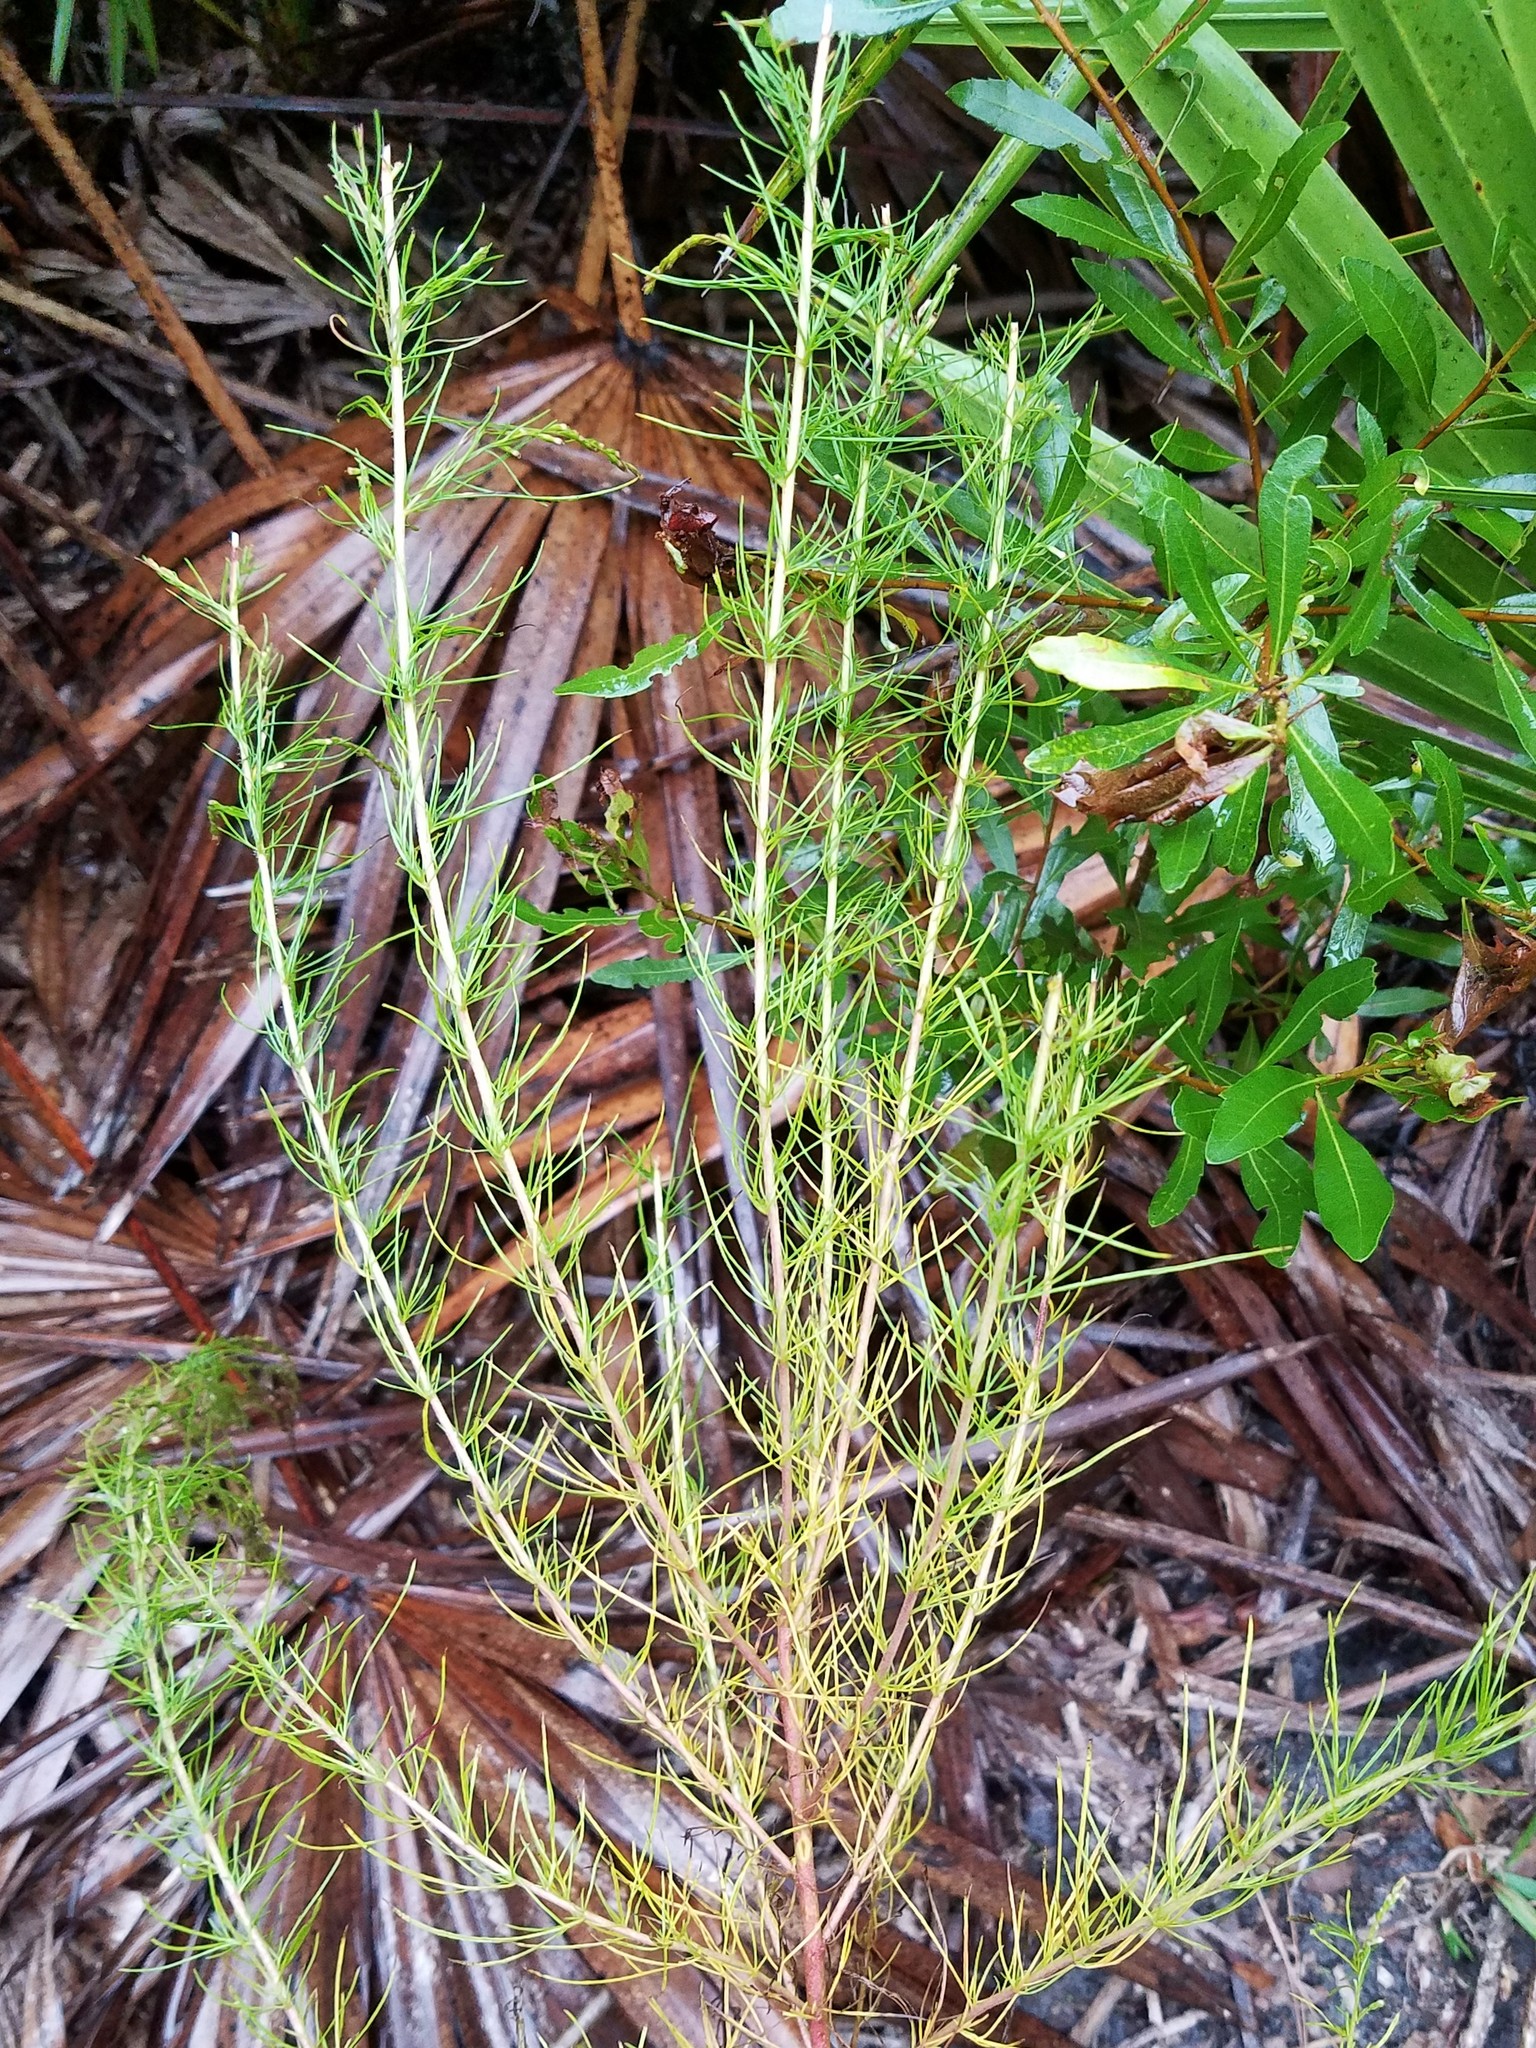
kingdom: Plantae
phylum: Tracheophyta
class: Magnoliopsida
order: Asterales
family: Asteraceae
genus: Eupatorium
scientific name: Eupatorium capillifolium
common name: Dog-fennel
